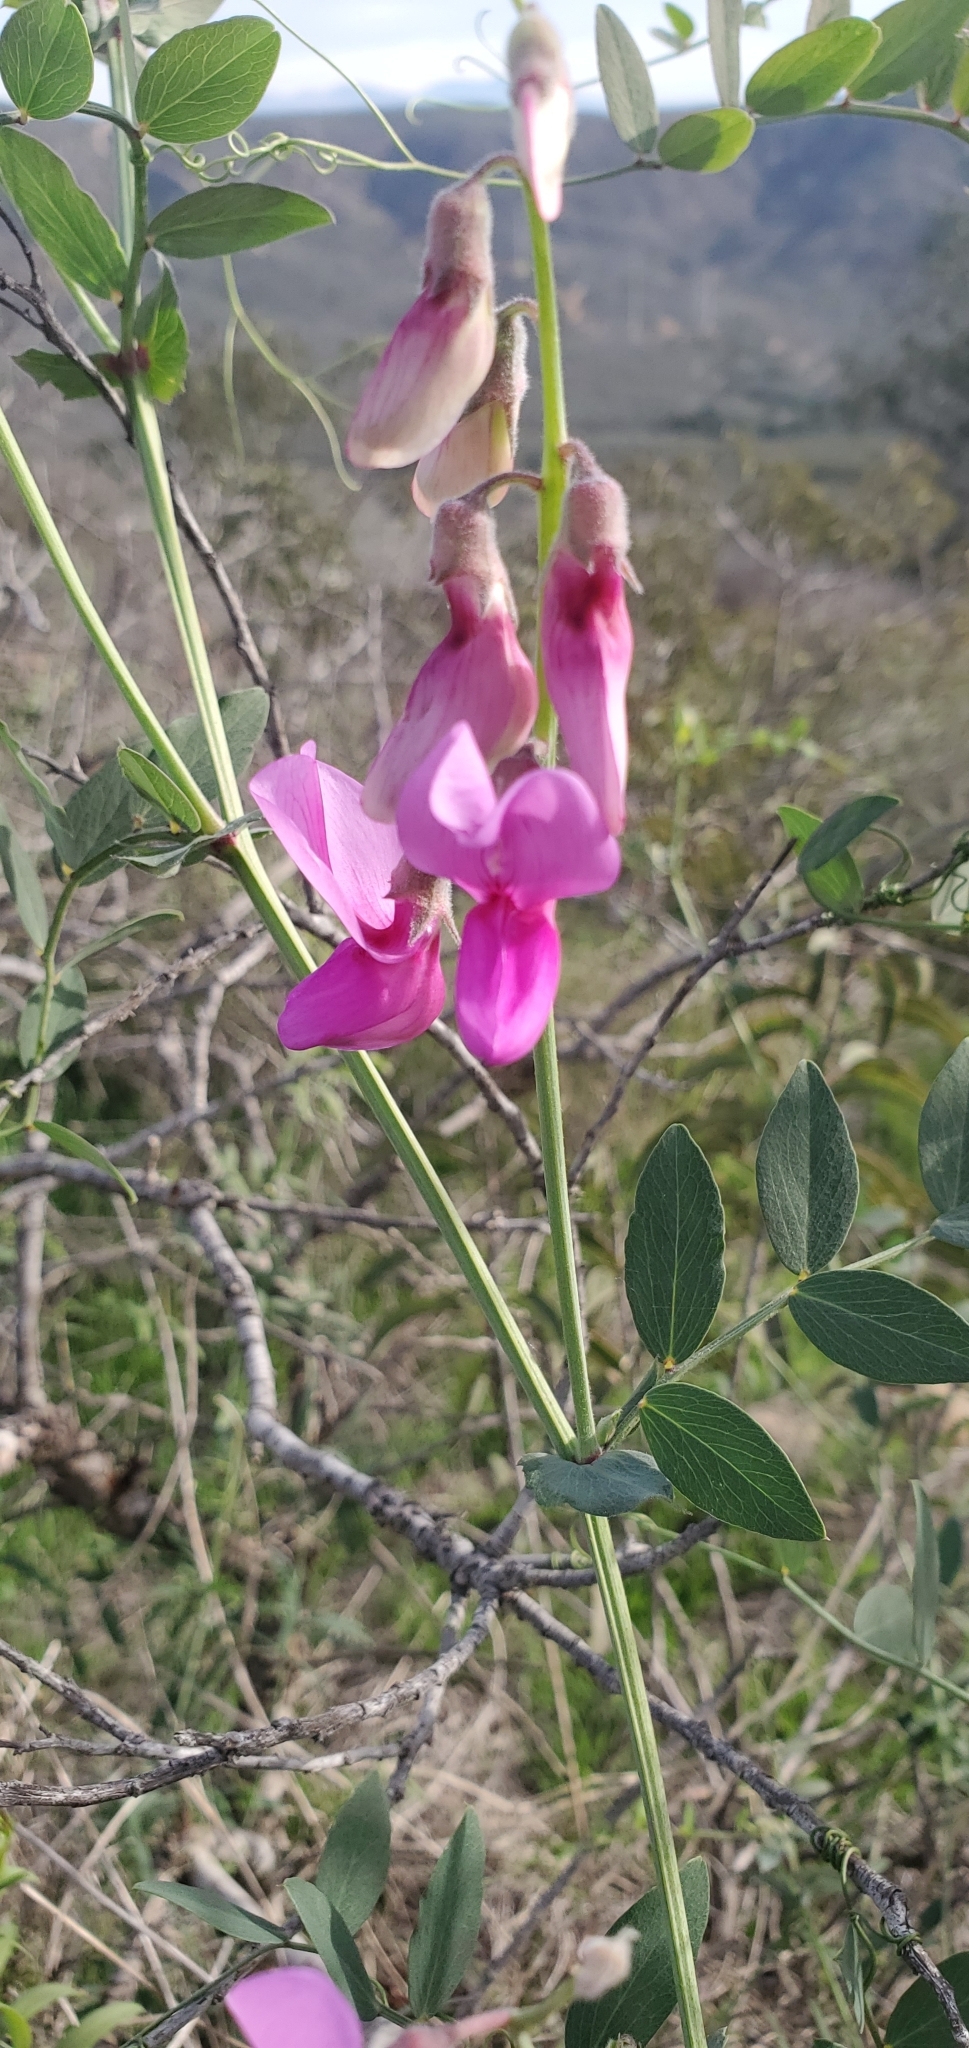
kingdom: Plantae
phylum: Tracheophyta
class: Magnoliopsida
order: Fabales
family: Fabaceae
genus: Lathyrus
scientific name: Lathyrus vestitus
